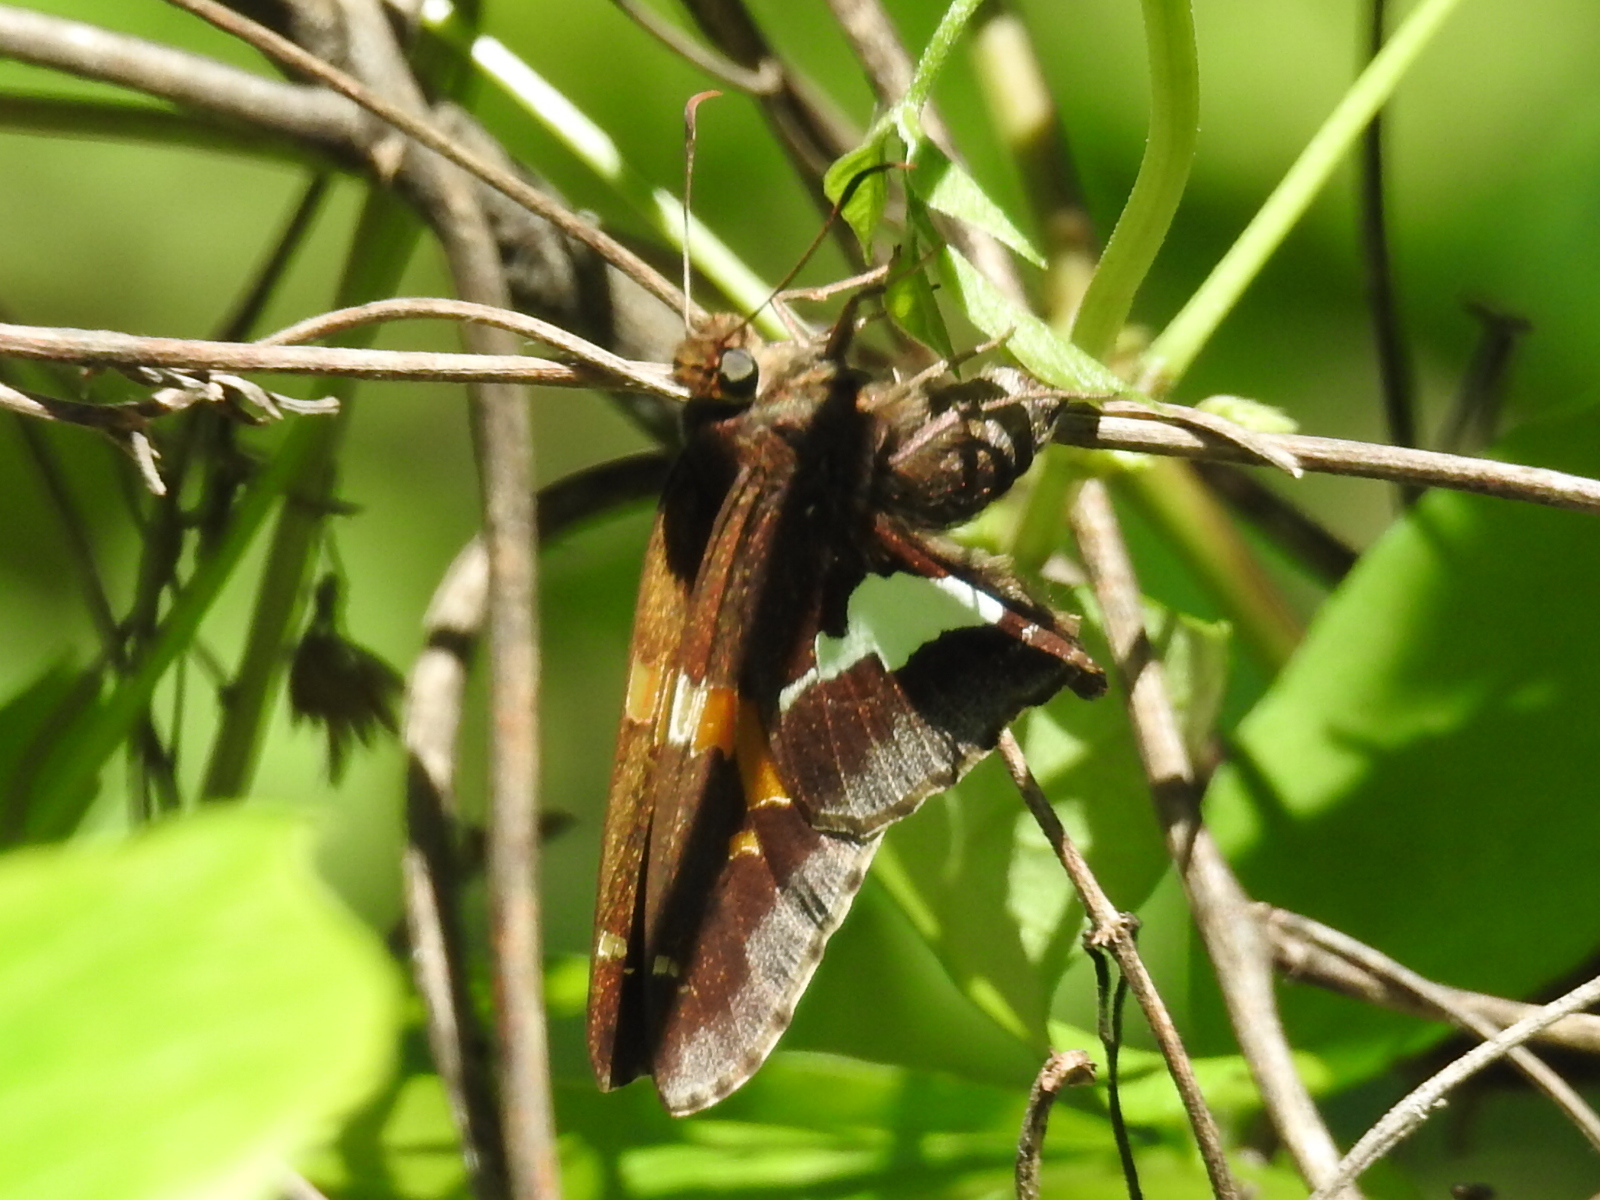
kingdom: Animalia
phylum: Arthropoda
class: Insecta
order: Lepidoptera
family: Hesperiidae
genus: Epargyreus
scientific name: Epargyreus clarus
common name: Silver-spotted skipper
